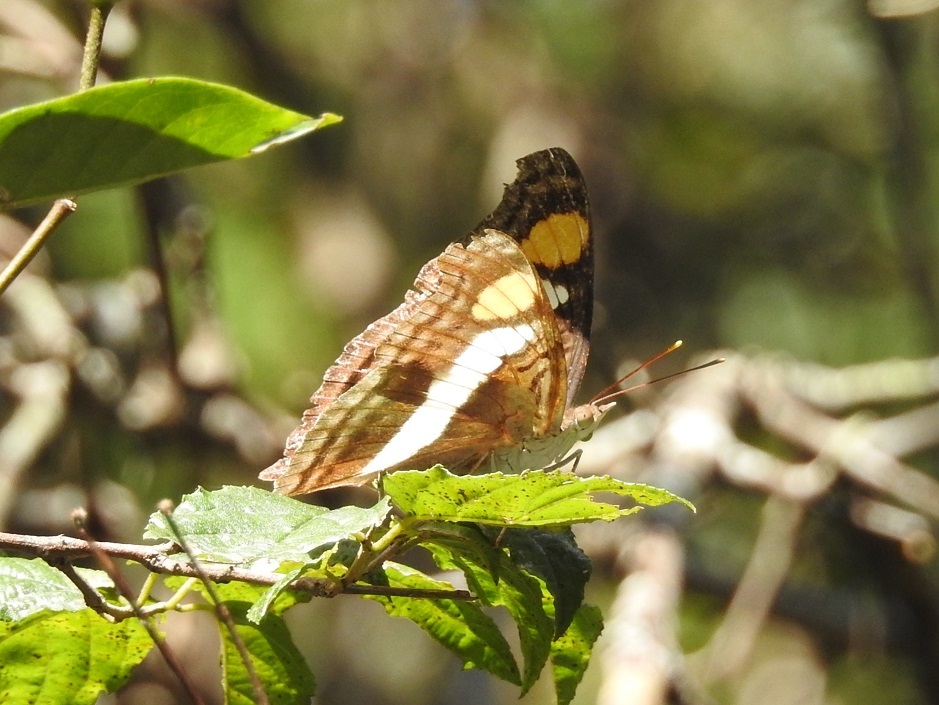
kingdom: Animalia
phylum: Arthropoda
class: Insecta
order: Lepidoptera
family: Nymphalidae
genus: Doxocopa
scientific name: Doxocopa laure
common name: Silver emperor
